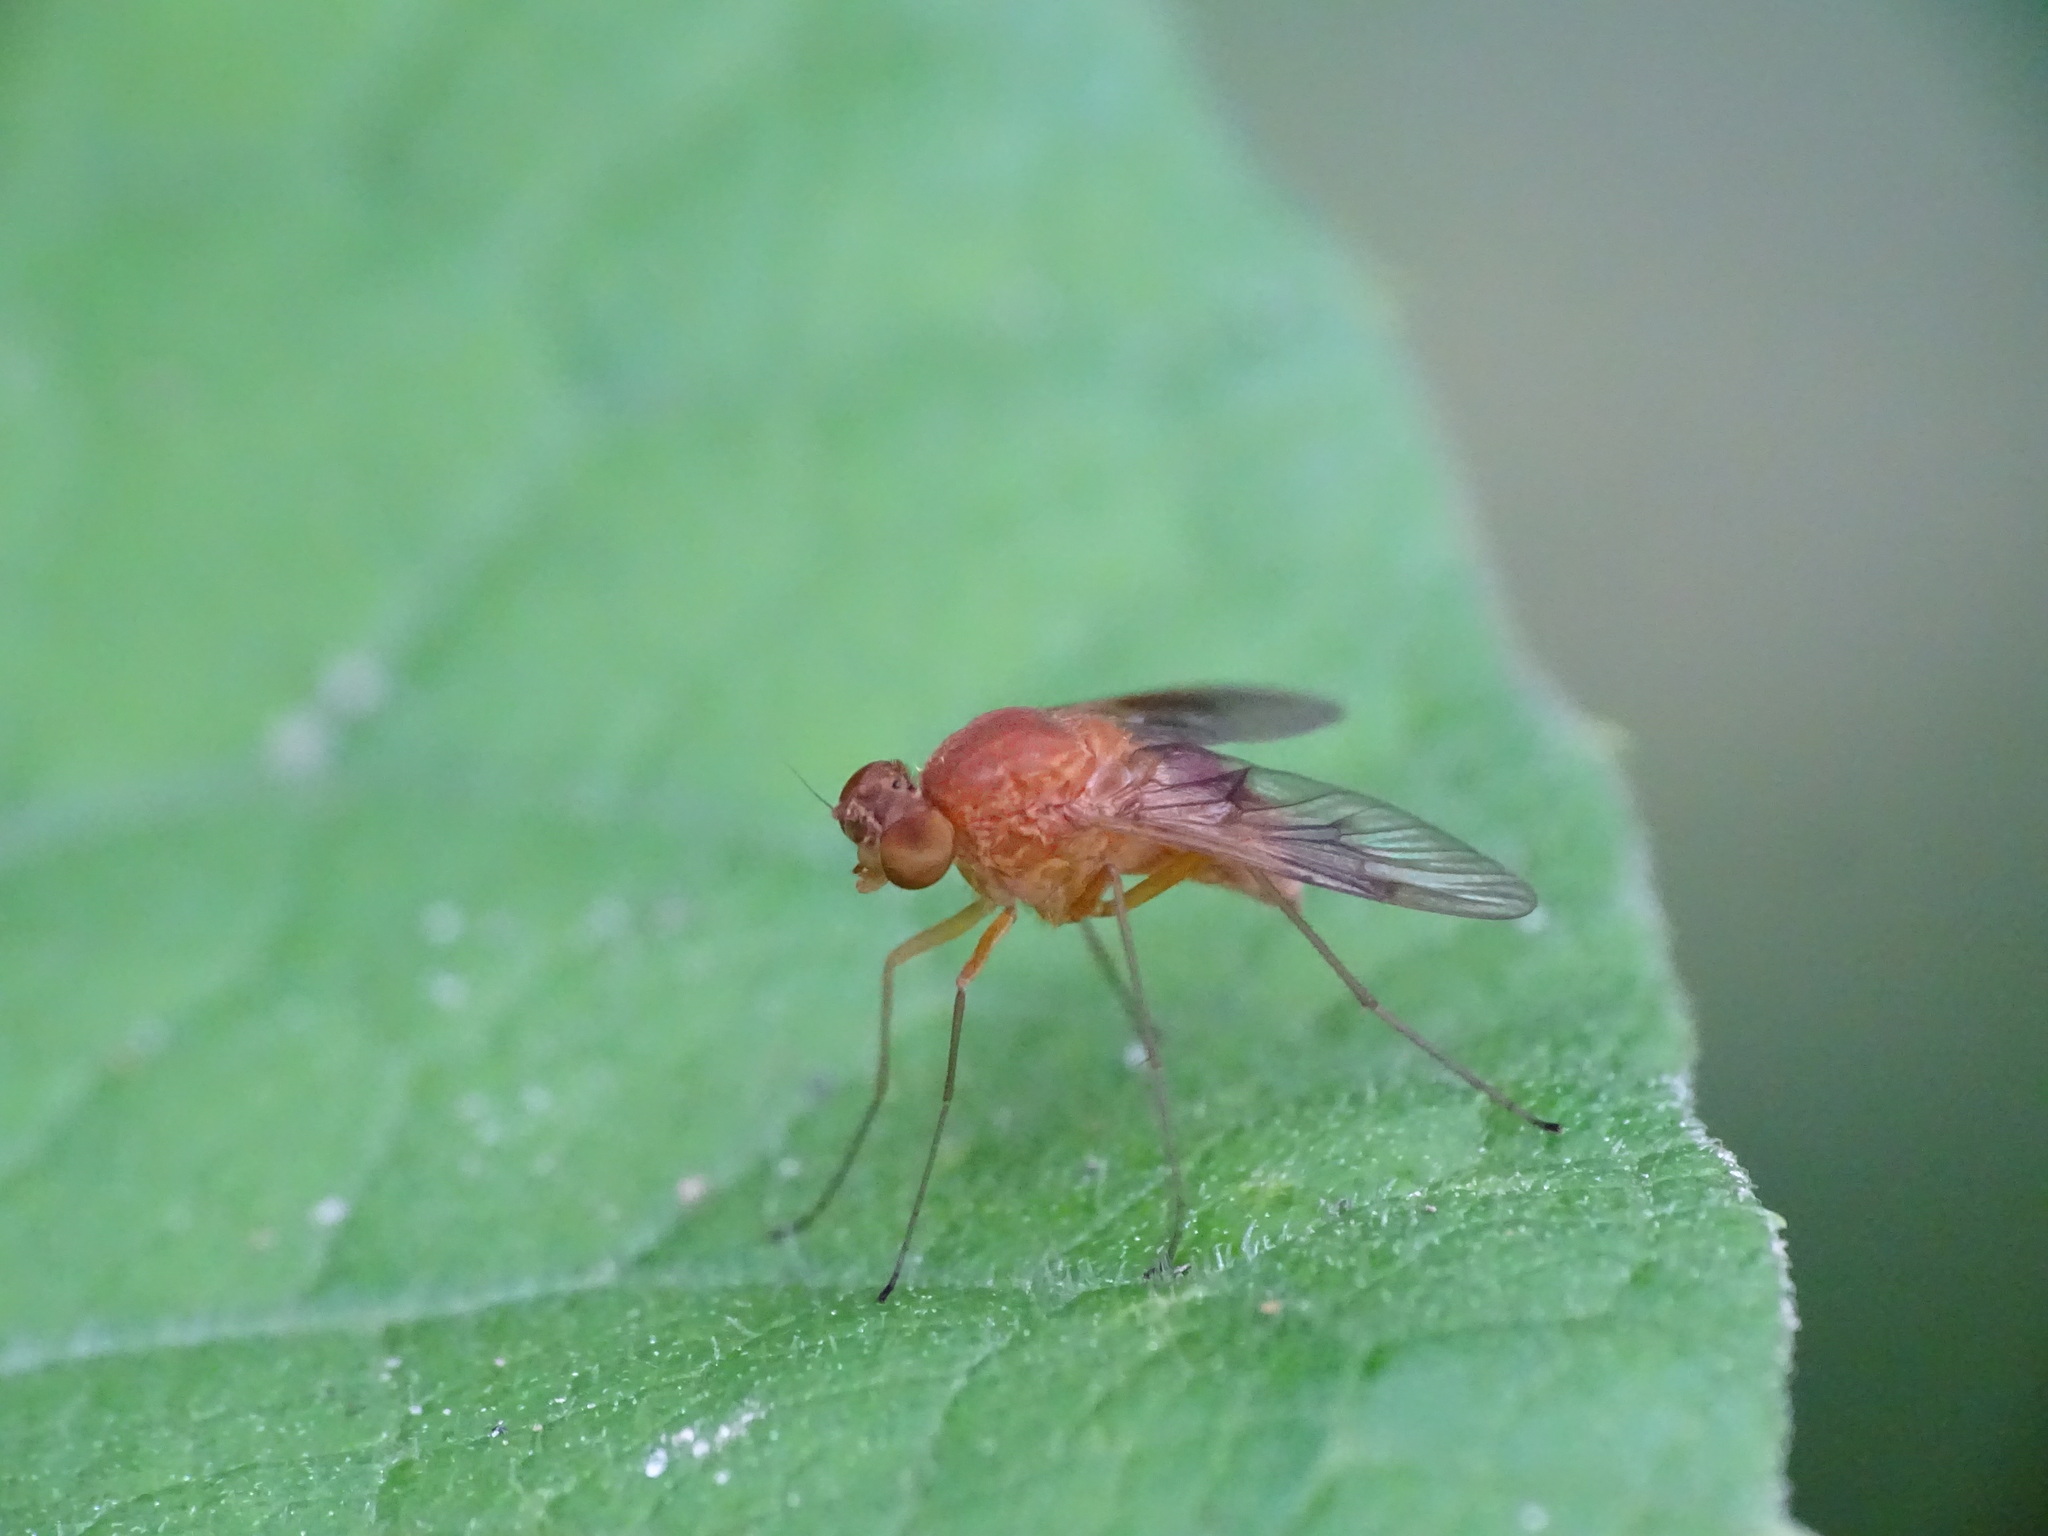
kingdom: Animalia
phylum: Arthropoda
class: Insecta
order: Diptera
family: Rhagionidae
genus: Chrysopilus
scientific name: Chrysopilus quadratus
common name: Quadrate snipe fly
